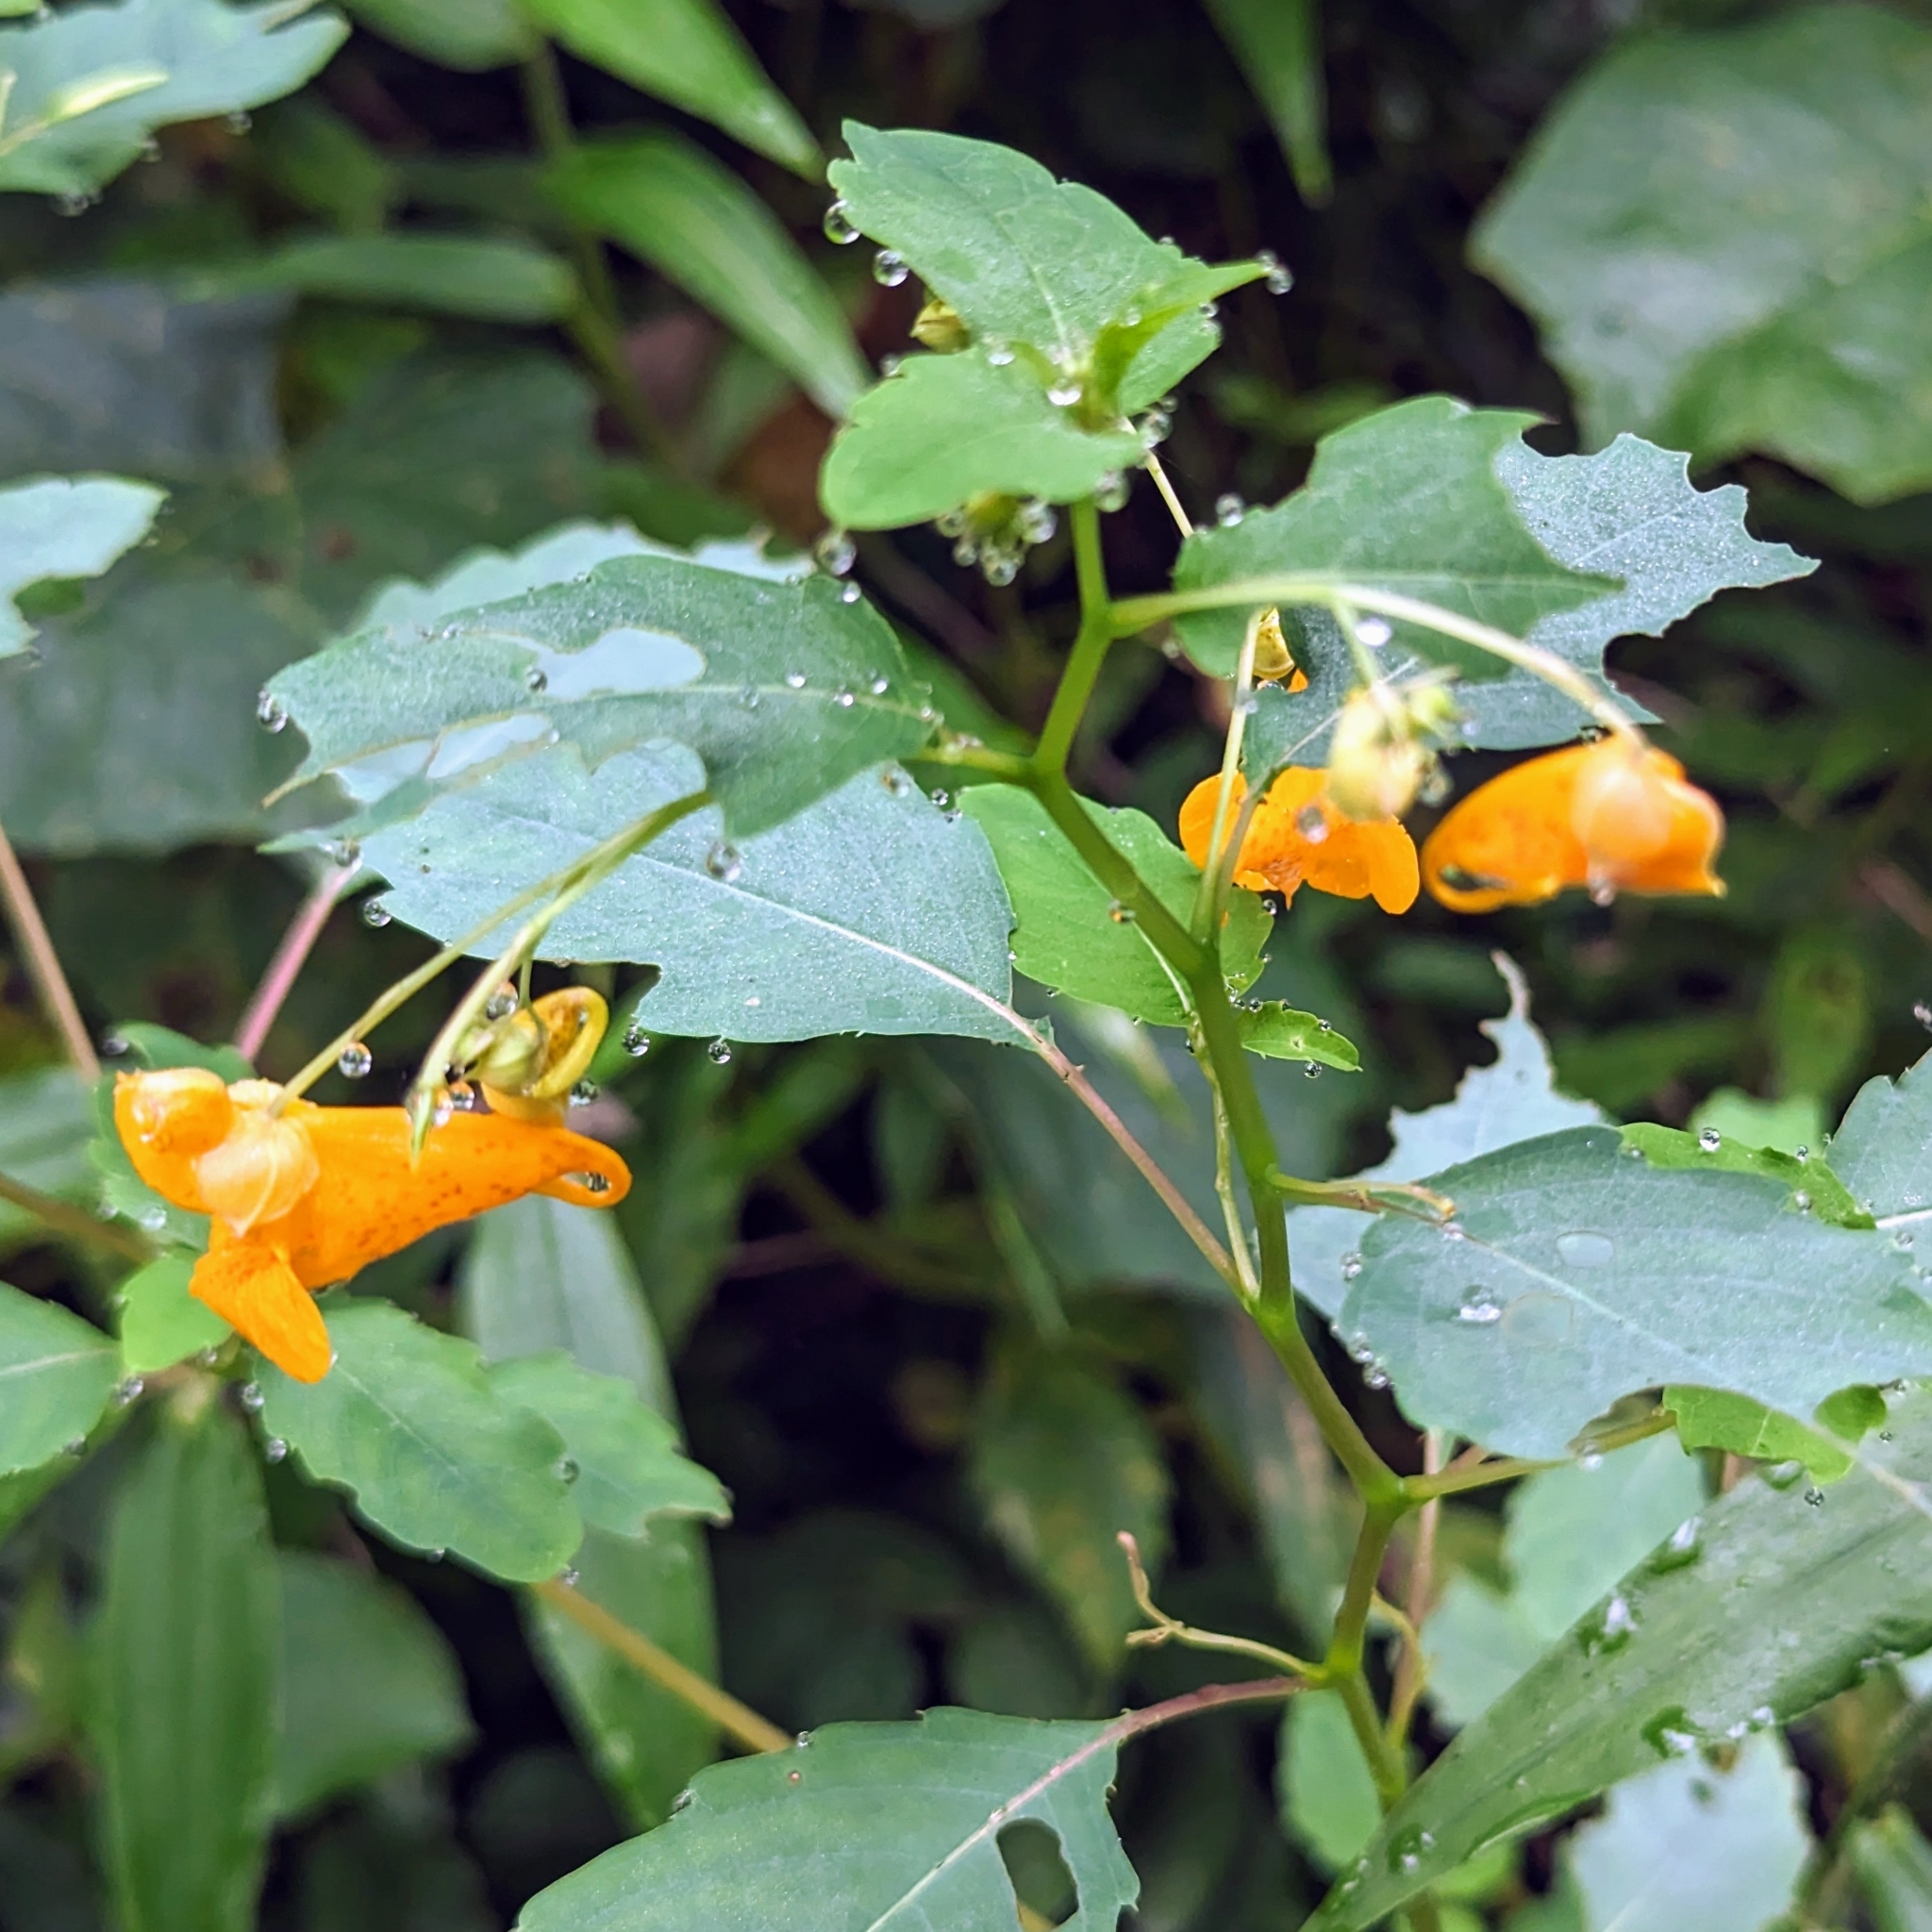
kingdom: Plantae
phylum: Tracheophyta
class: Magnoliopsida
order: Ericales
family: Balsaminaceae
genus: Impatiens
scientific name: Impatiens capensis
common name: Orange balsam
